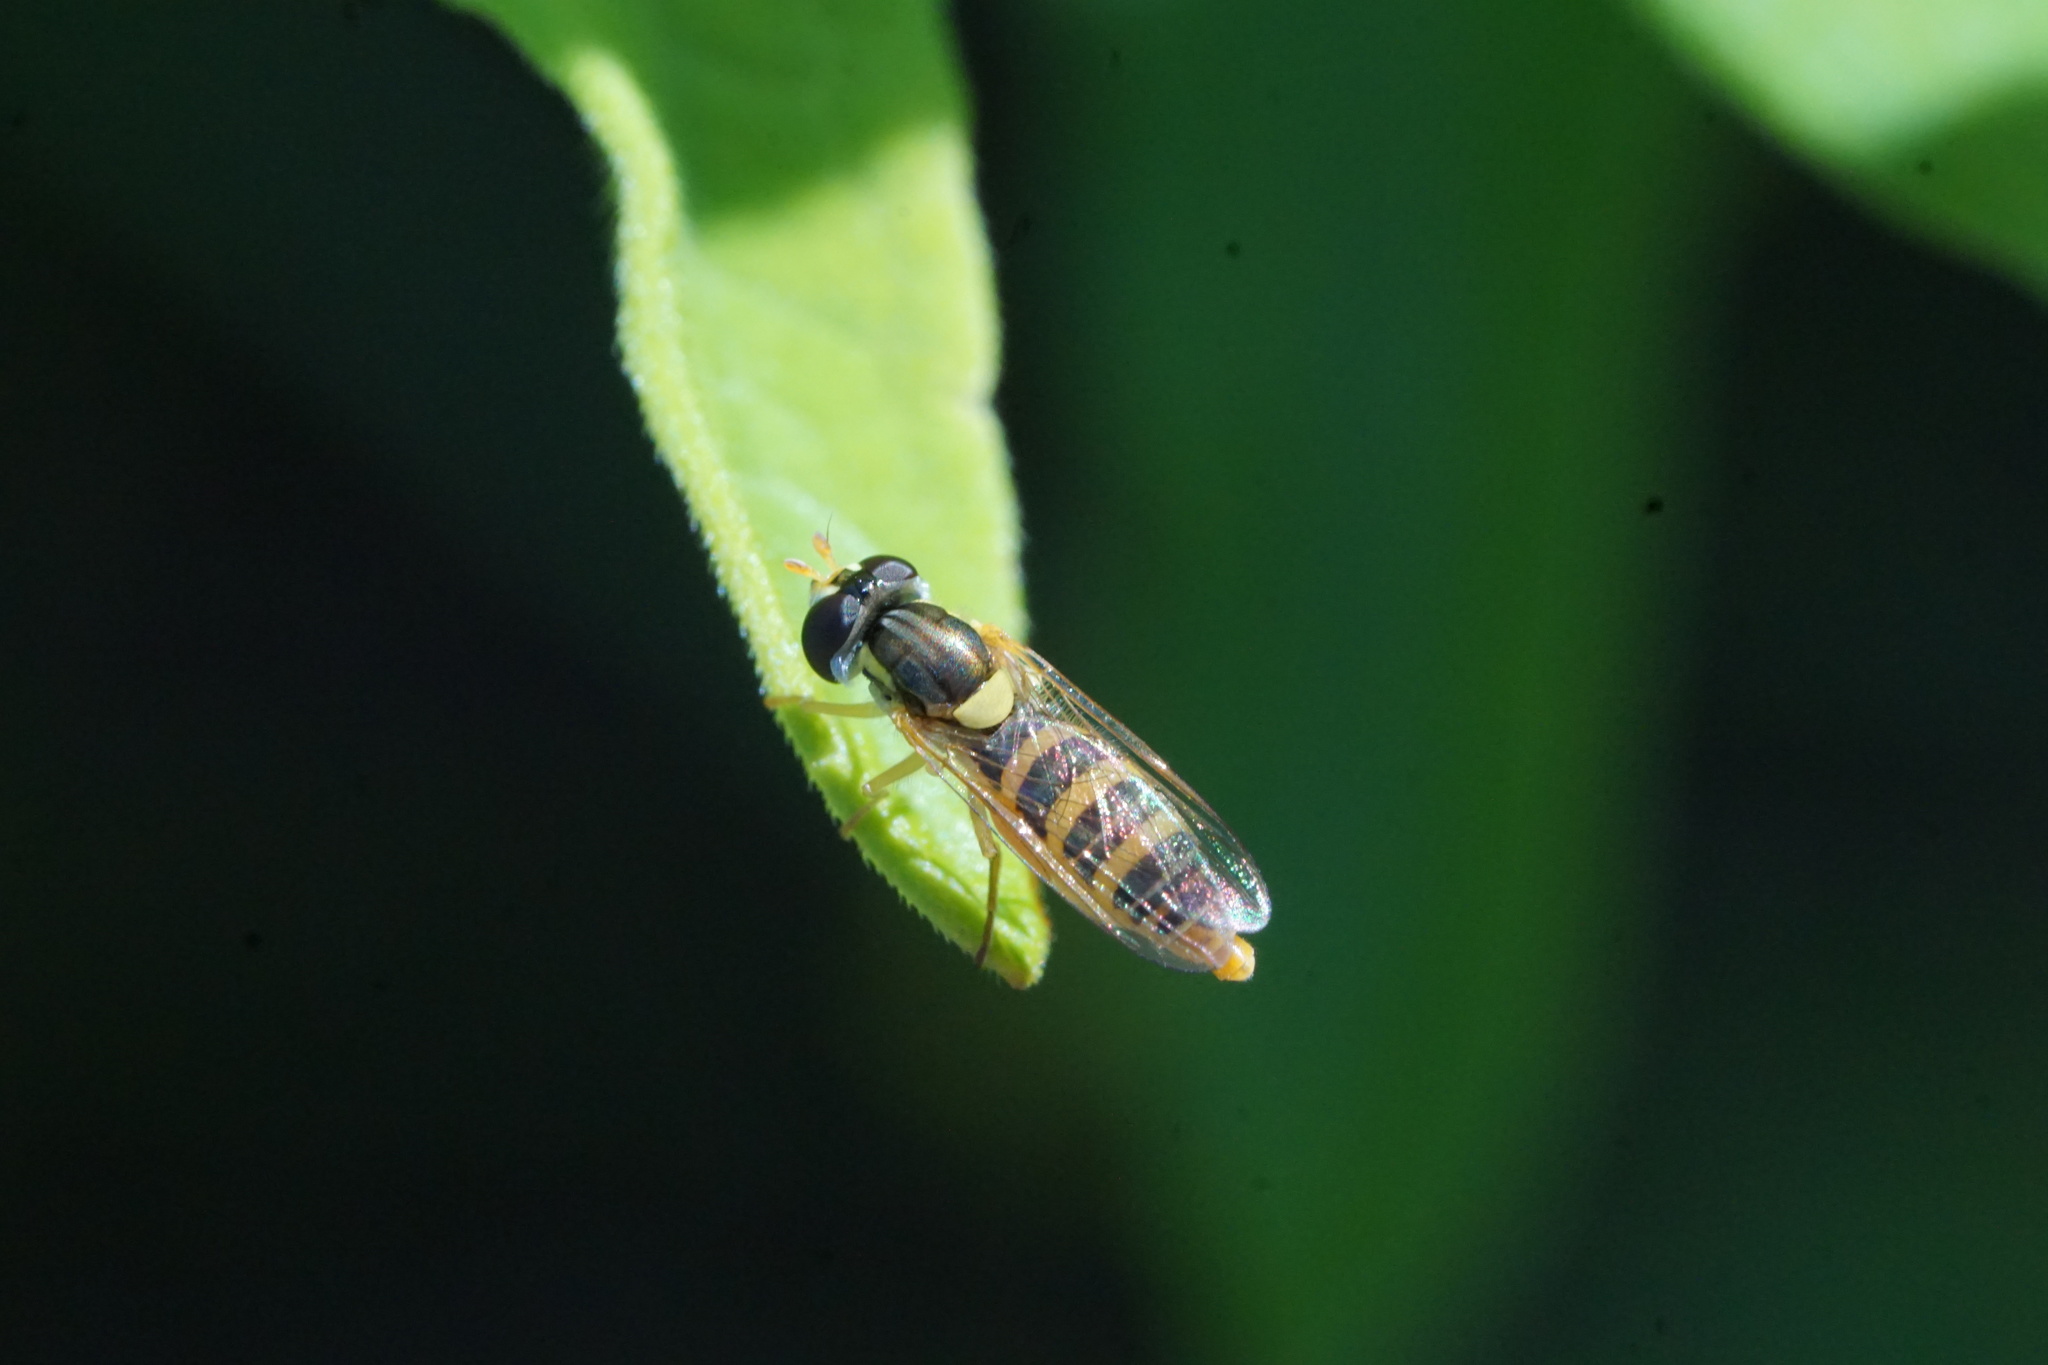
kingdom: Animalia
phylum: Arthropoda
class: Insecta
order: Diptera
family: Syrphidae
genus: Sphaerophoria
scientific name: Sphaerophoria contigua
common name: Tufted globetail
